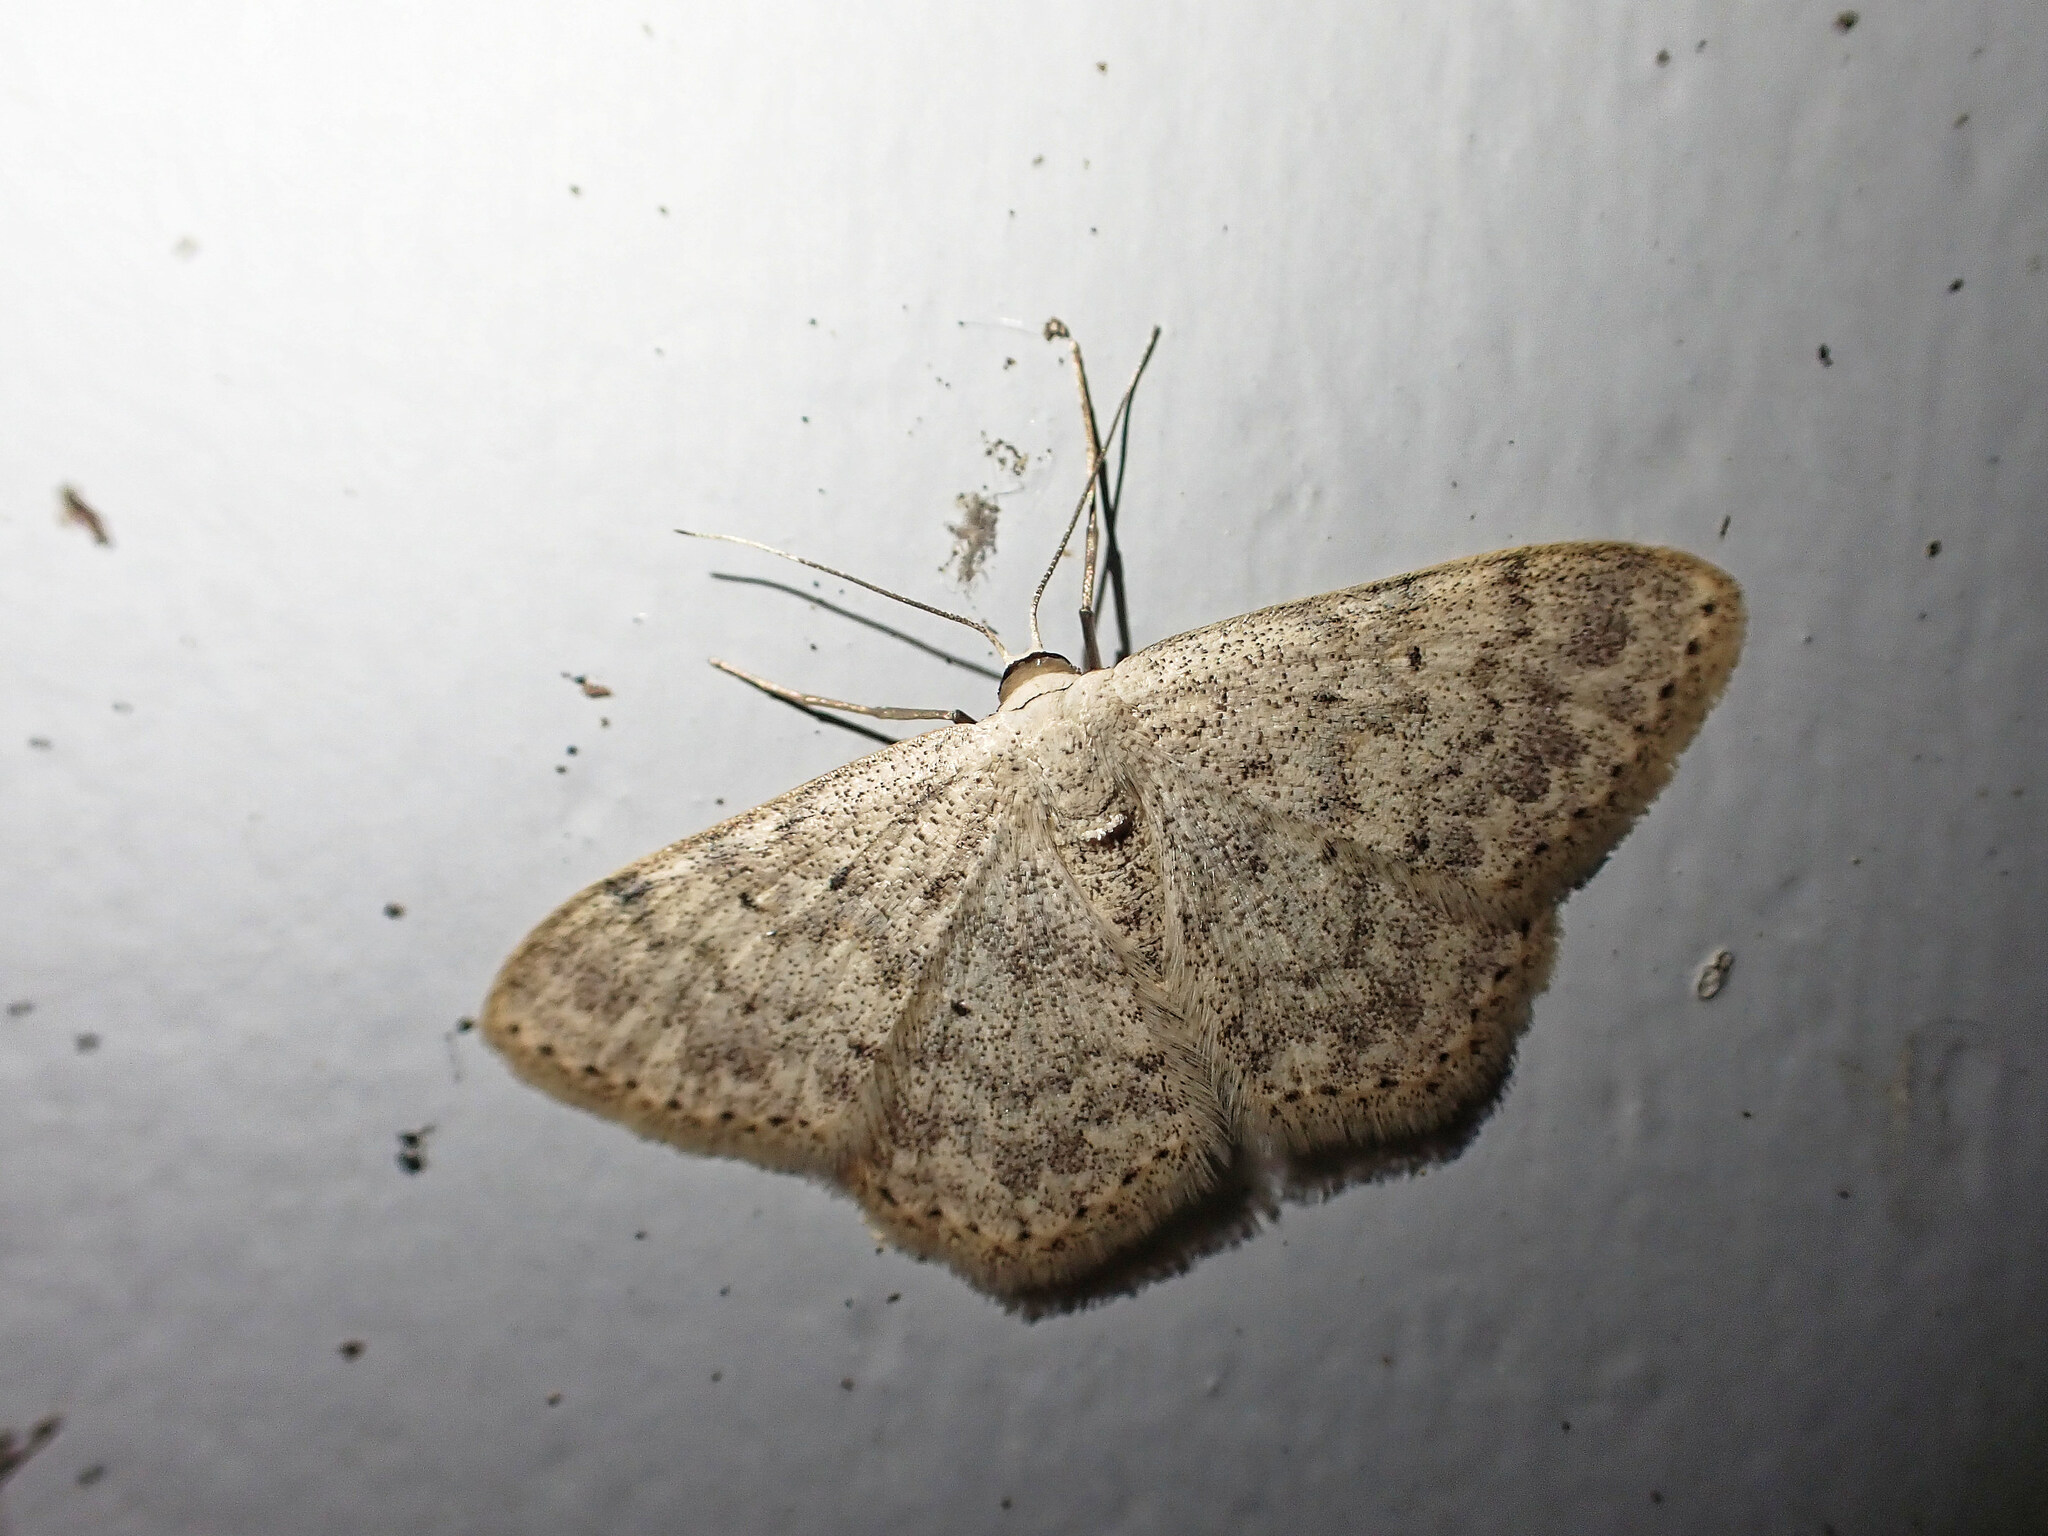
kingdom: Animalia
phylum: Arthropoda
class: Insecta
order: Lepidoptera
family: Geometridae
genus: Scopula
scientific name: Scopula marginepunctata
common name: Mullein wave
